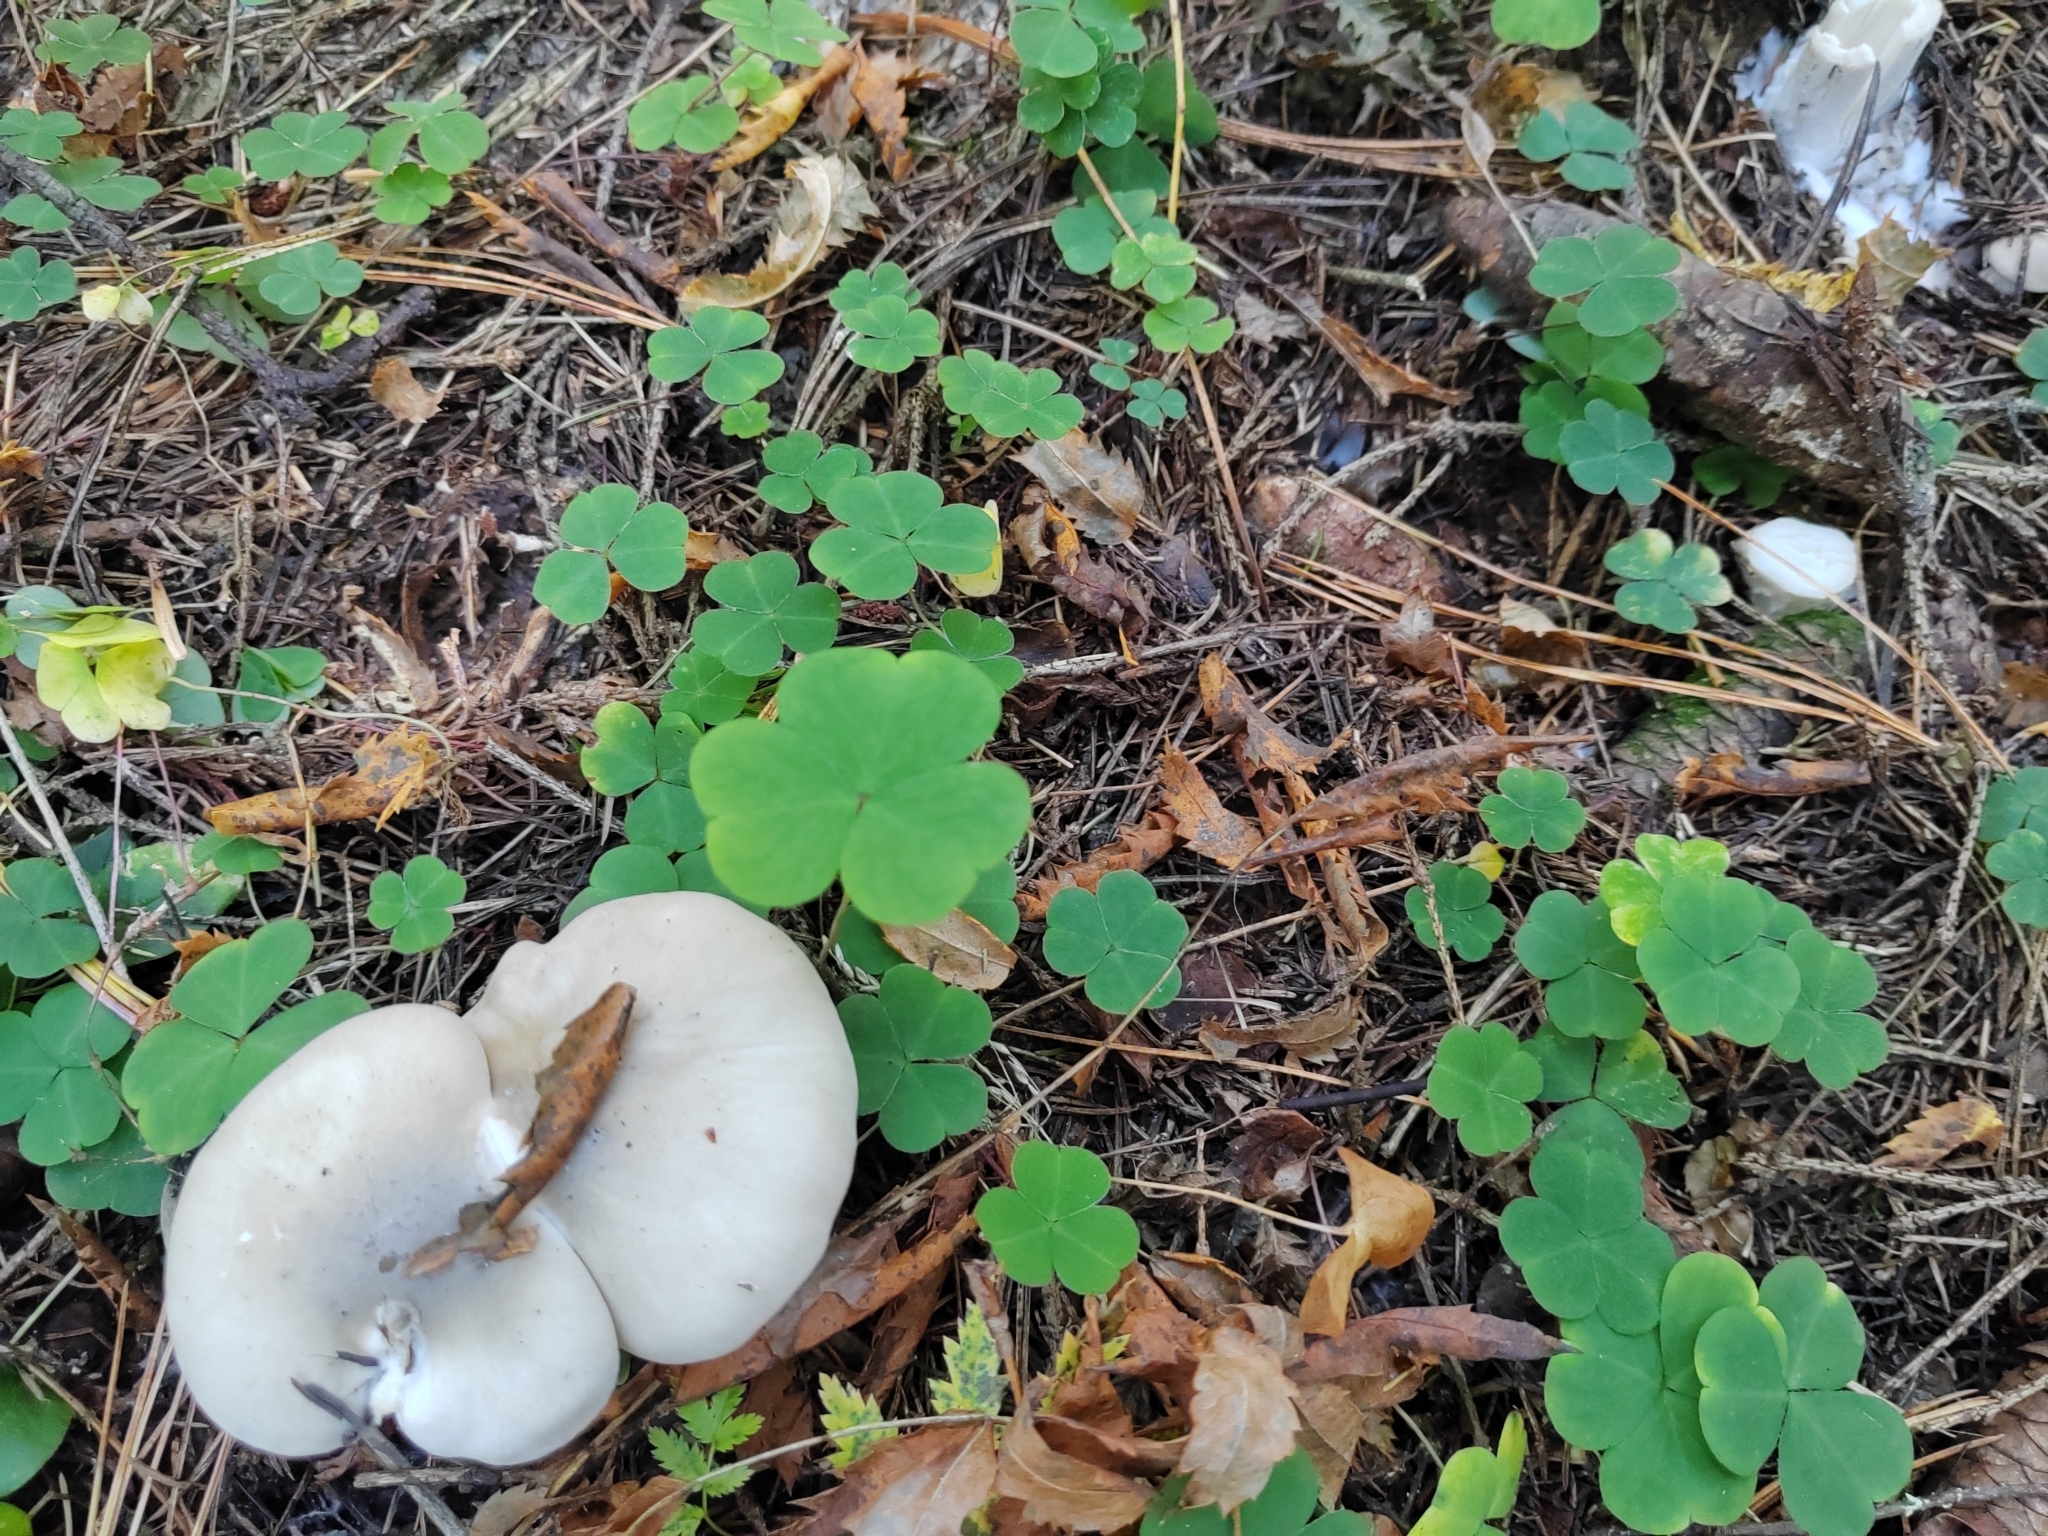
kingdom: Fungi
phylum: Basidiomycota
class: Agaricomycetes
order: Agaricales
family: Tricholomataceae
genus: Clitocybe
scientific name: Clitocybe nebularis
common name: Clouded agaric
